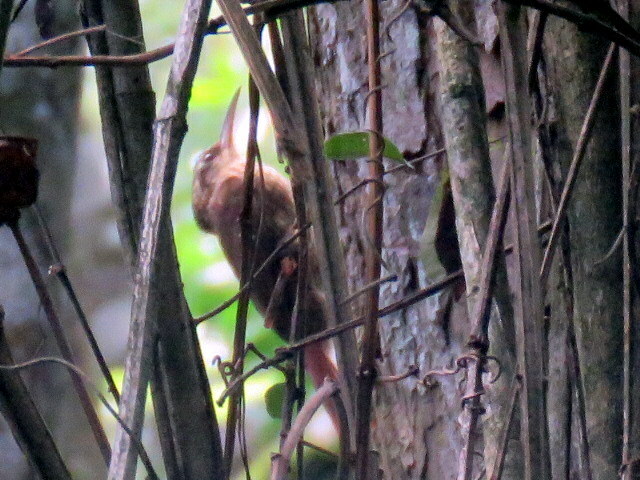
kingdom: Animalia
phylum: Chordata
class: Aves
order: Passeriformes
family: Furnariidae
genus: Xiphorhynchus
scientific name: Xiphorhynchus fuscus
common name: Lesser woodcreeper
